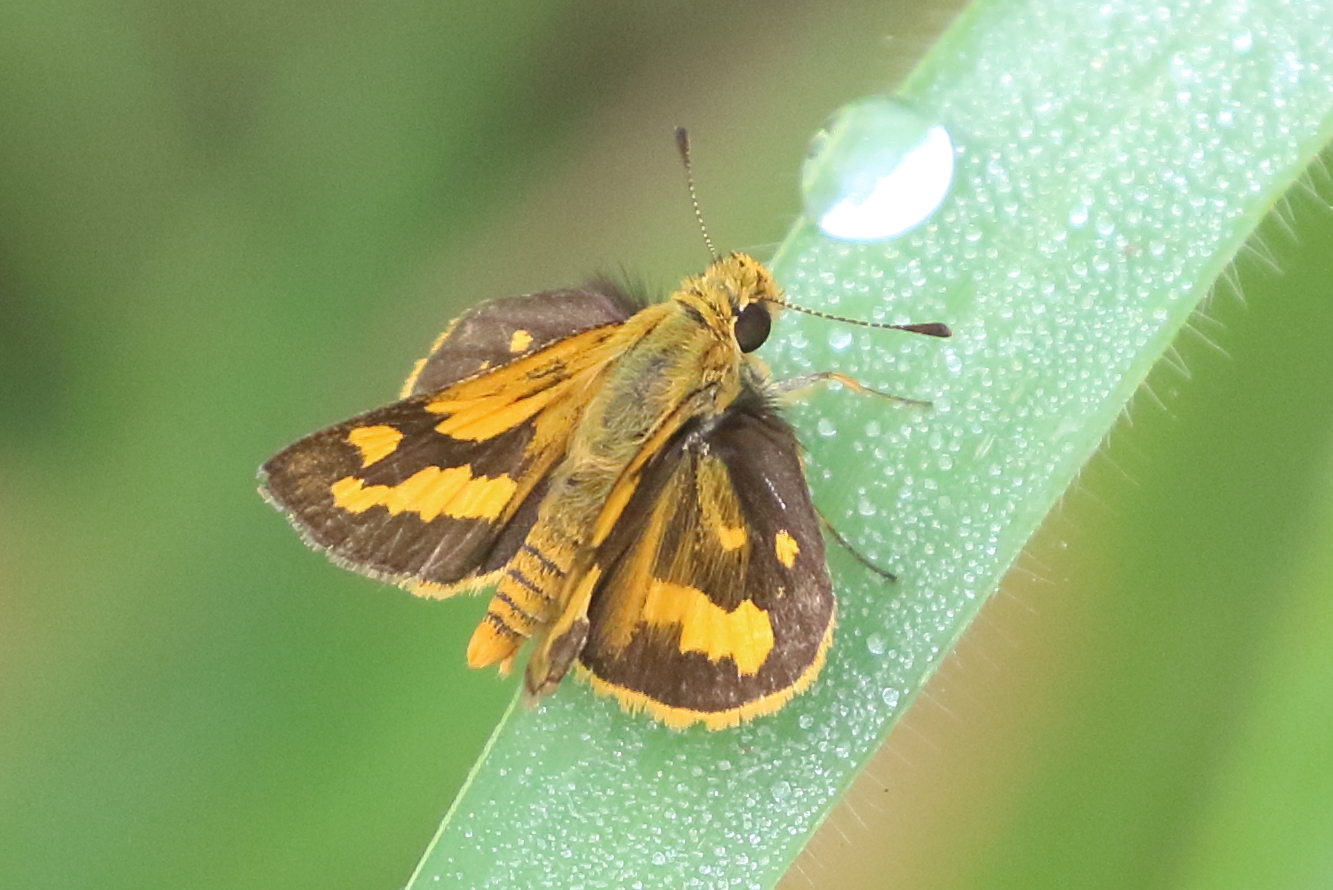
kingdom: Animalia
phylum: Arthropoda
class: Insecta
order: Lepidoptera
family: Hesperiidae
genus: Taractrocera
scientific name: Taractrocera
